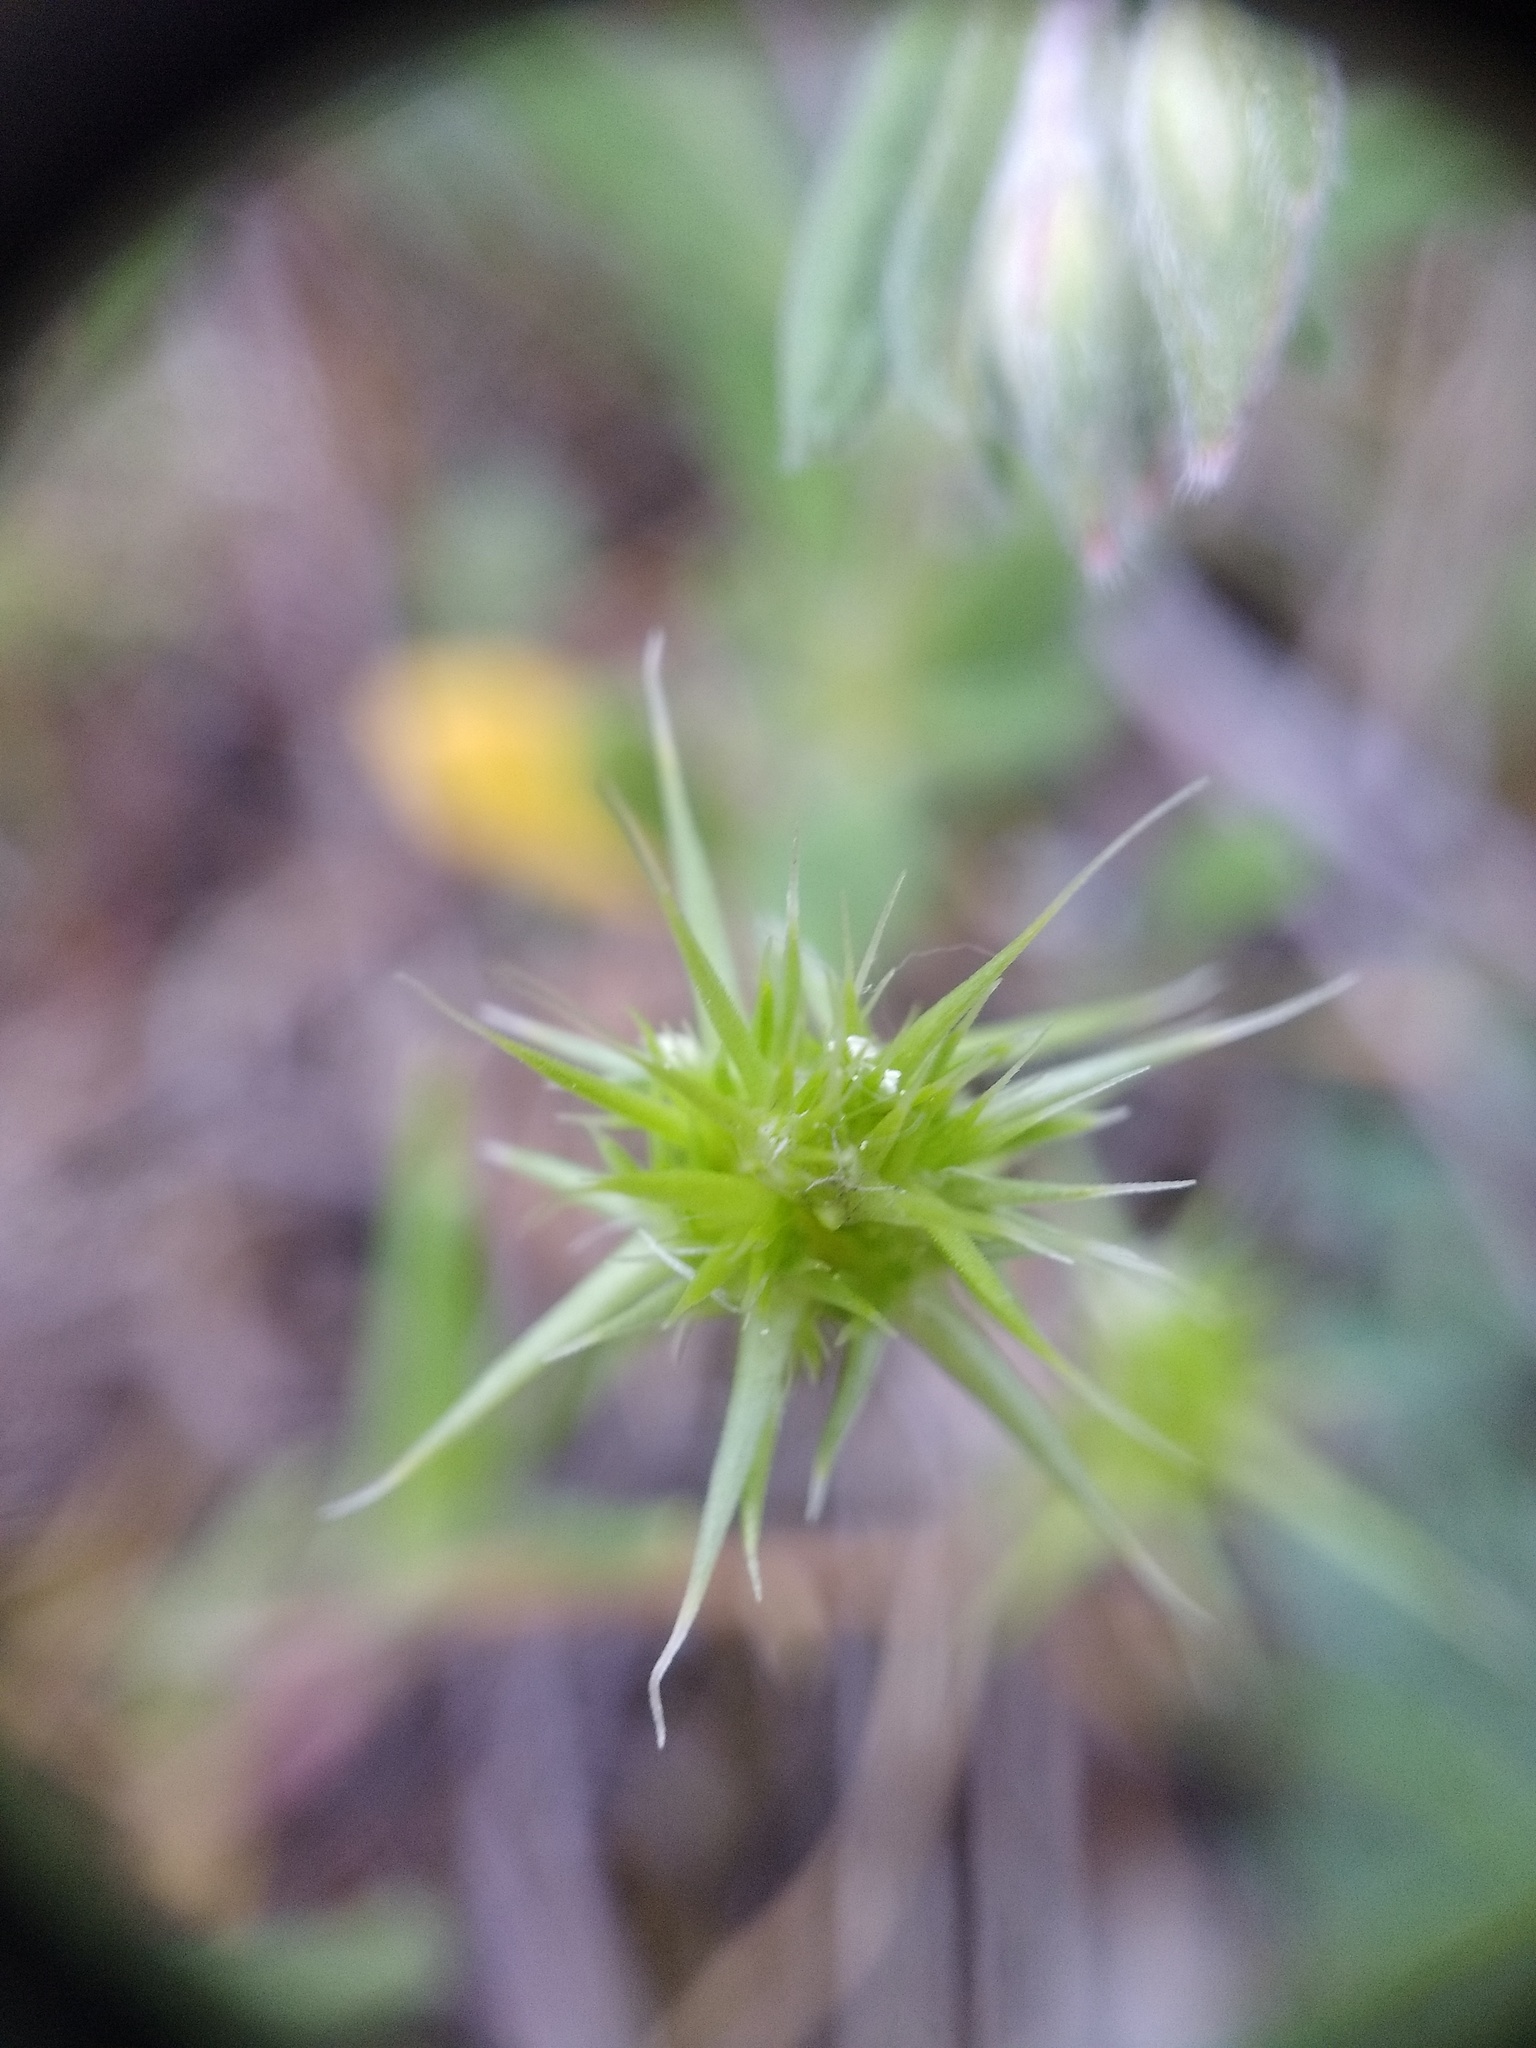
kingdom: Plantae
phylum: Tracheophyta
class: Liliopsida
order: Poales
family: Poaceae
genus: Echinaria
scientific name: Echinaria capitata
